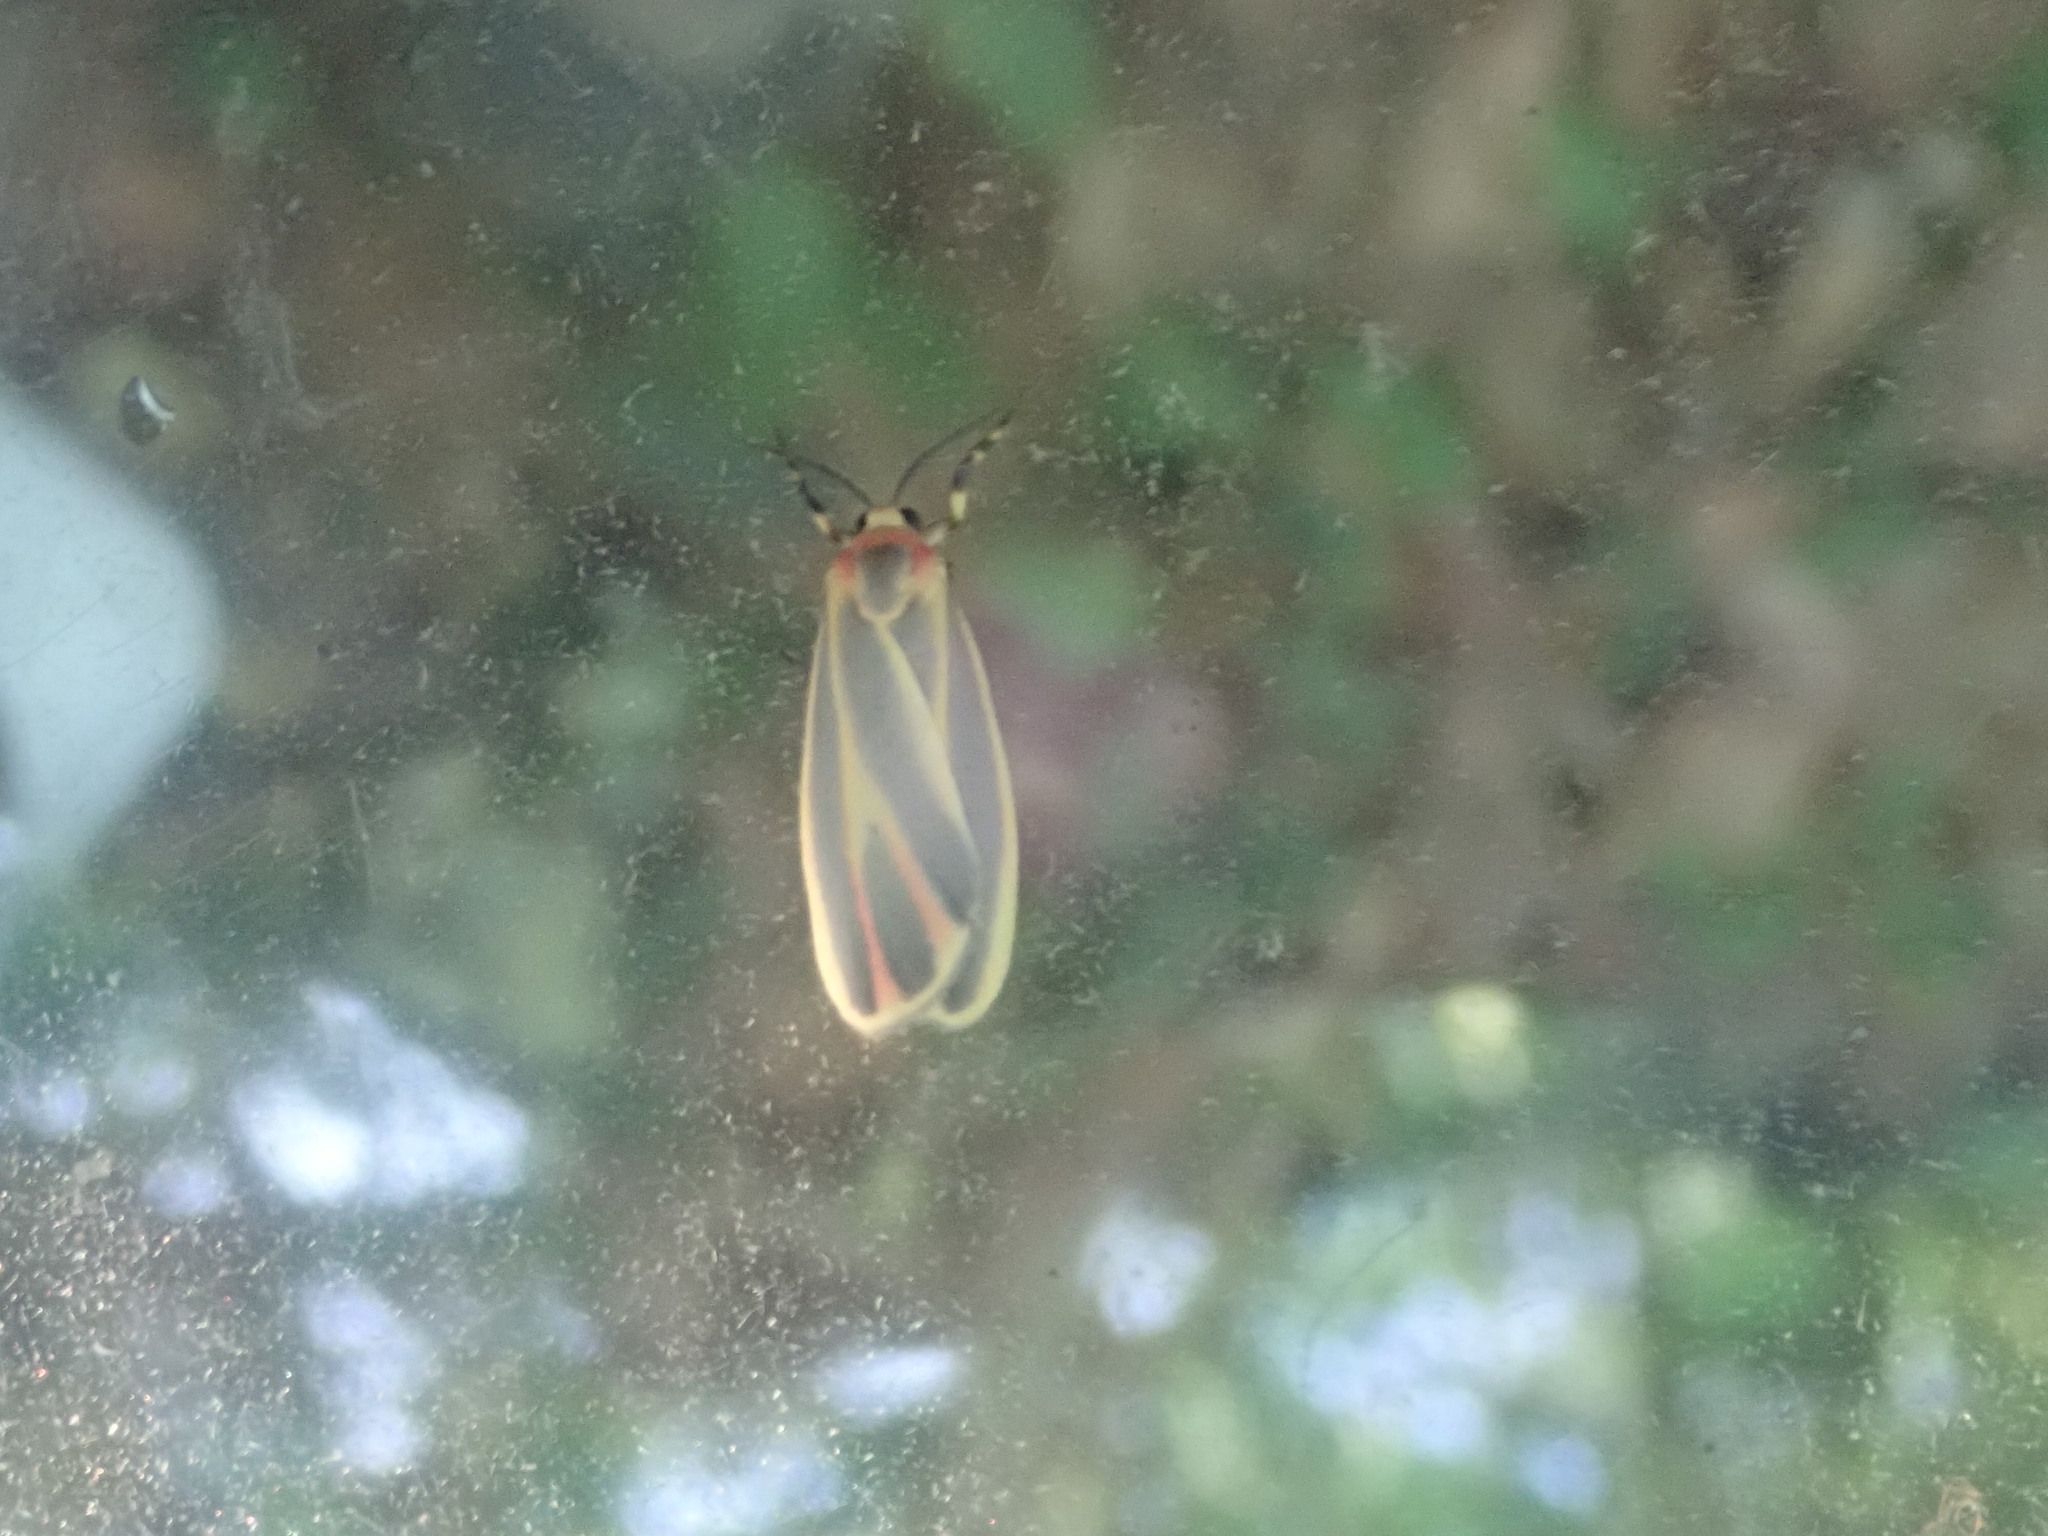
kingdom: Animalia
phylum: Arthropoda
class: Insecta
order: Lepidoptera
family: Erebidae
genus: Hypoprepia
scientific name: Hypoprepia fucosa
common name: Painted lichen moth
